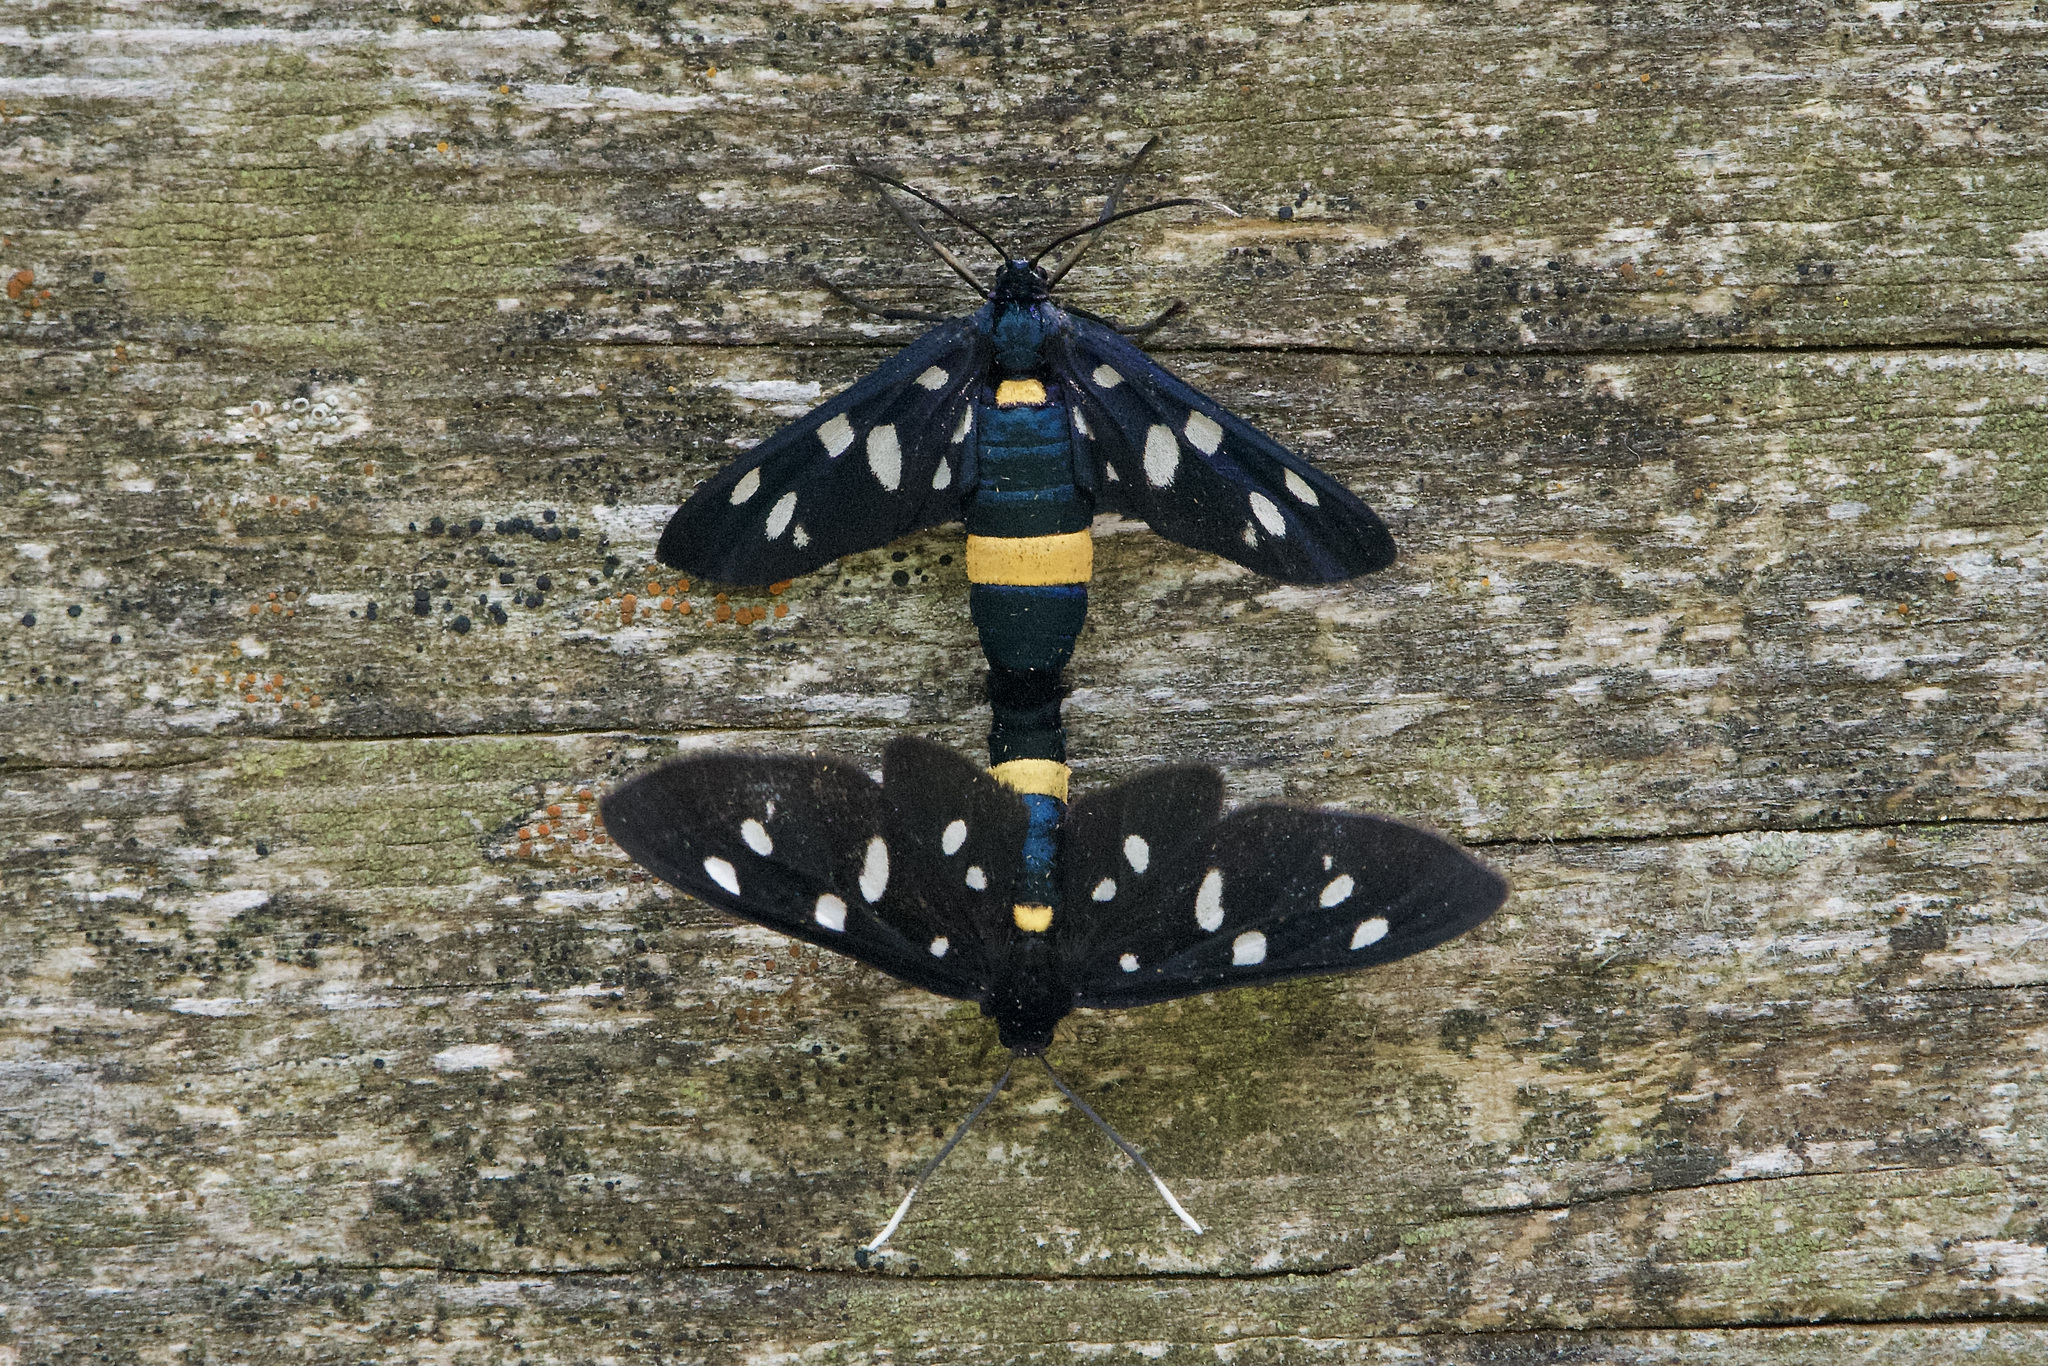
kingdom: Animalia
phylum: Arthropoda
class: Insecta
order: Lepidoptera
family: Erebidae
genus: Amata
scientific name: Amata phegea
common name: Nine-spotted
